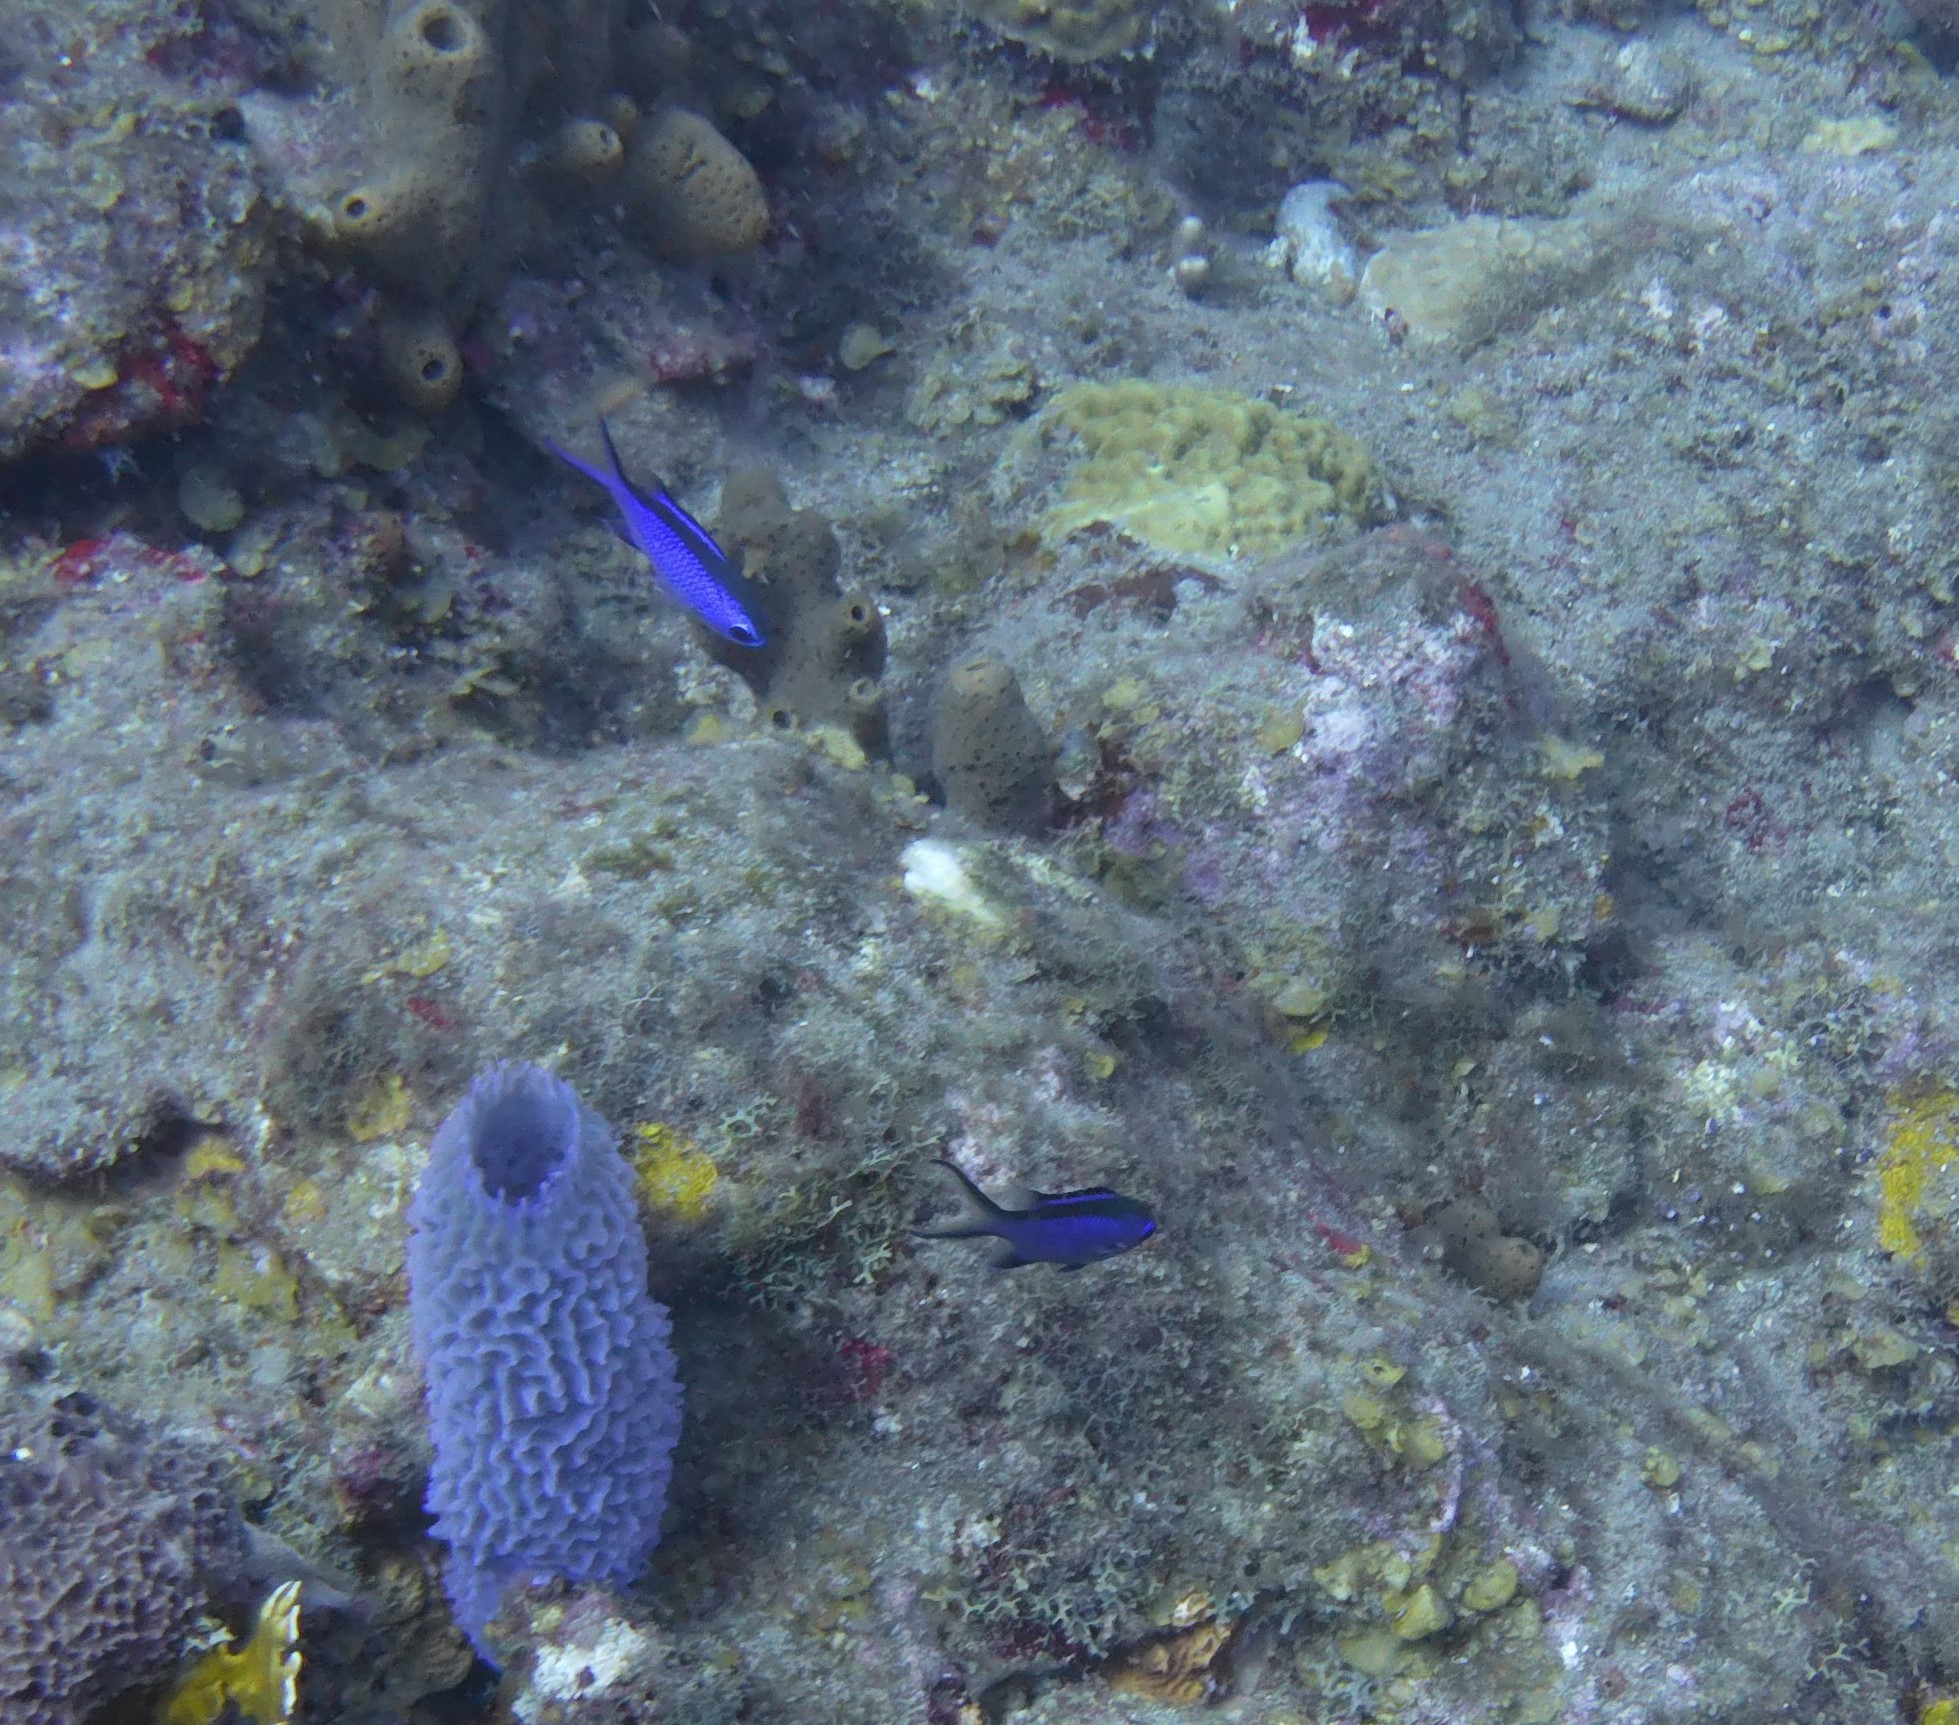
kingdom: Animalia
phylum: Chordata
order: Perciformes
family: Pomacentridae
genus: Chromis
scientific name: Chromis cyanea
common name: Blue chromis
